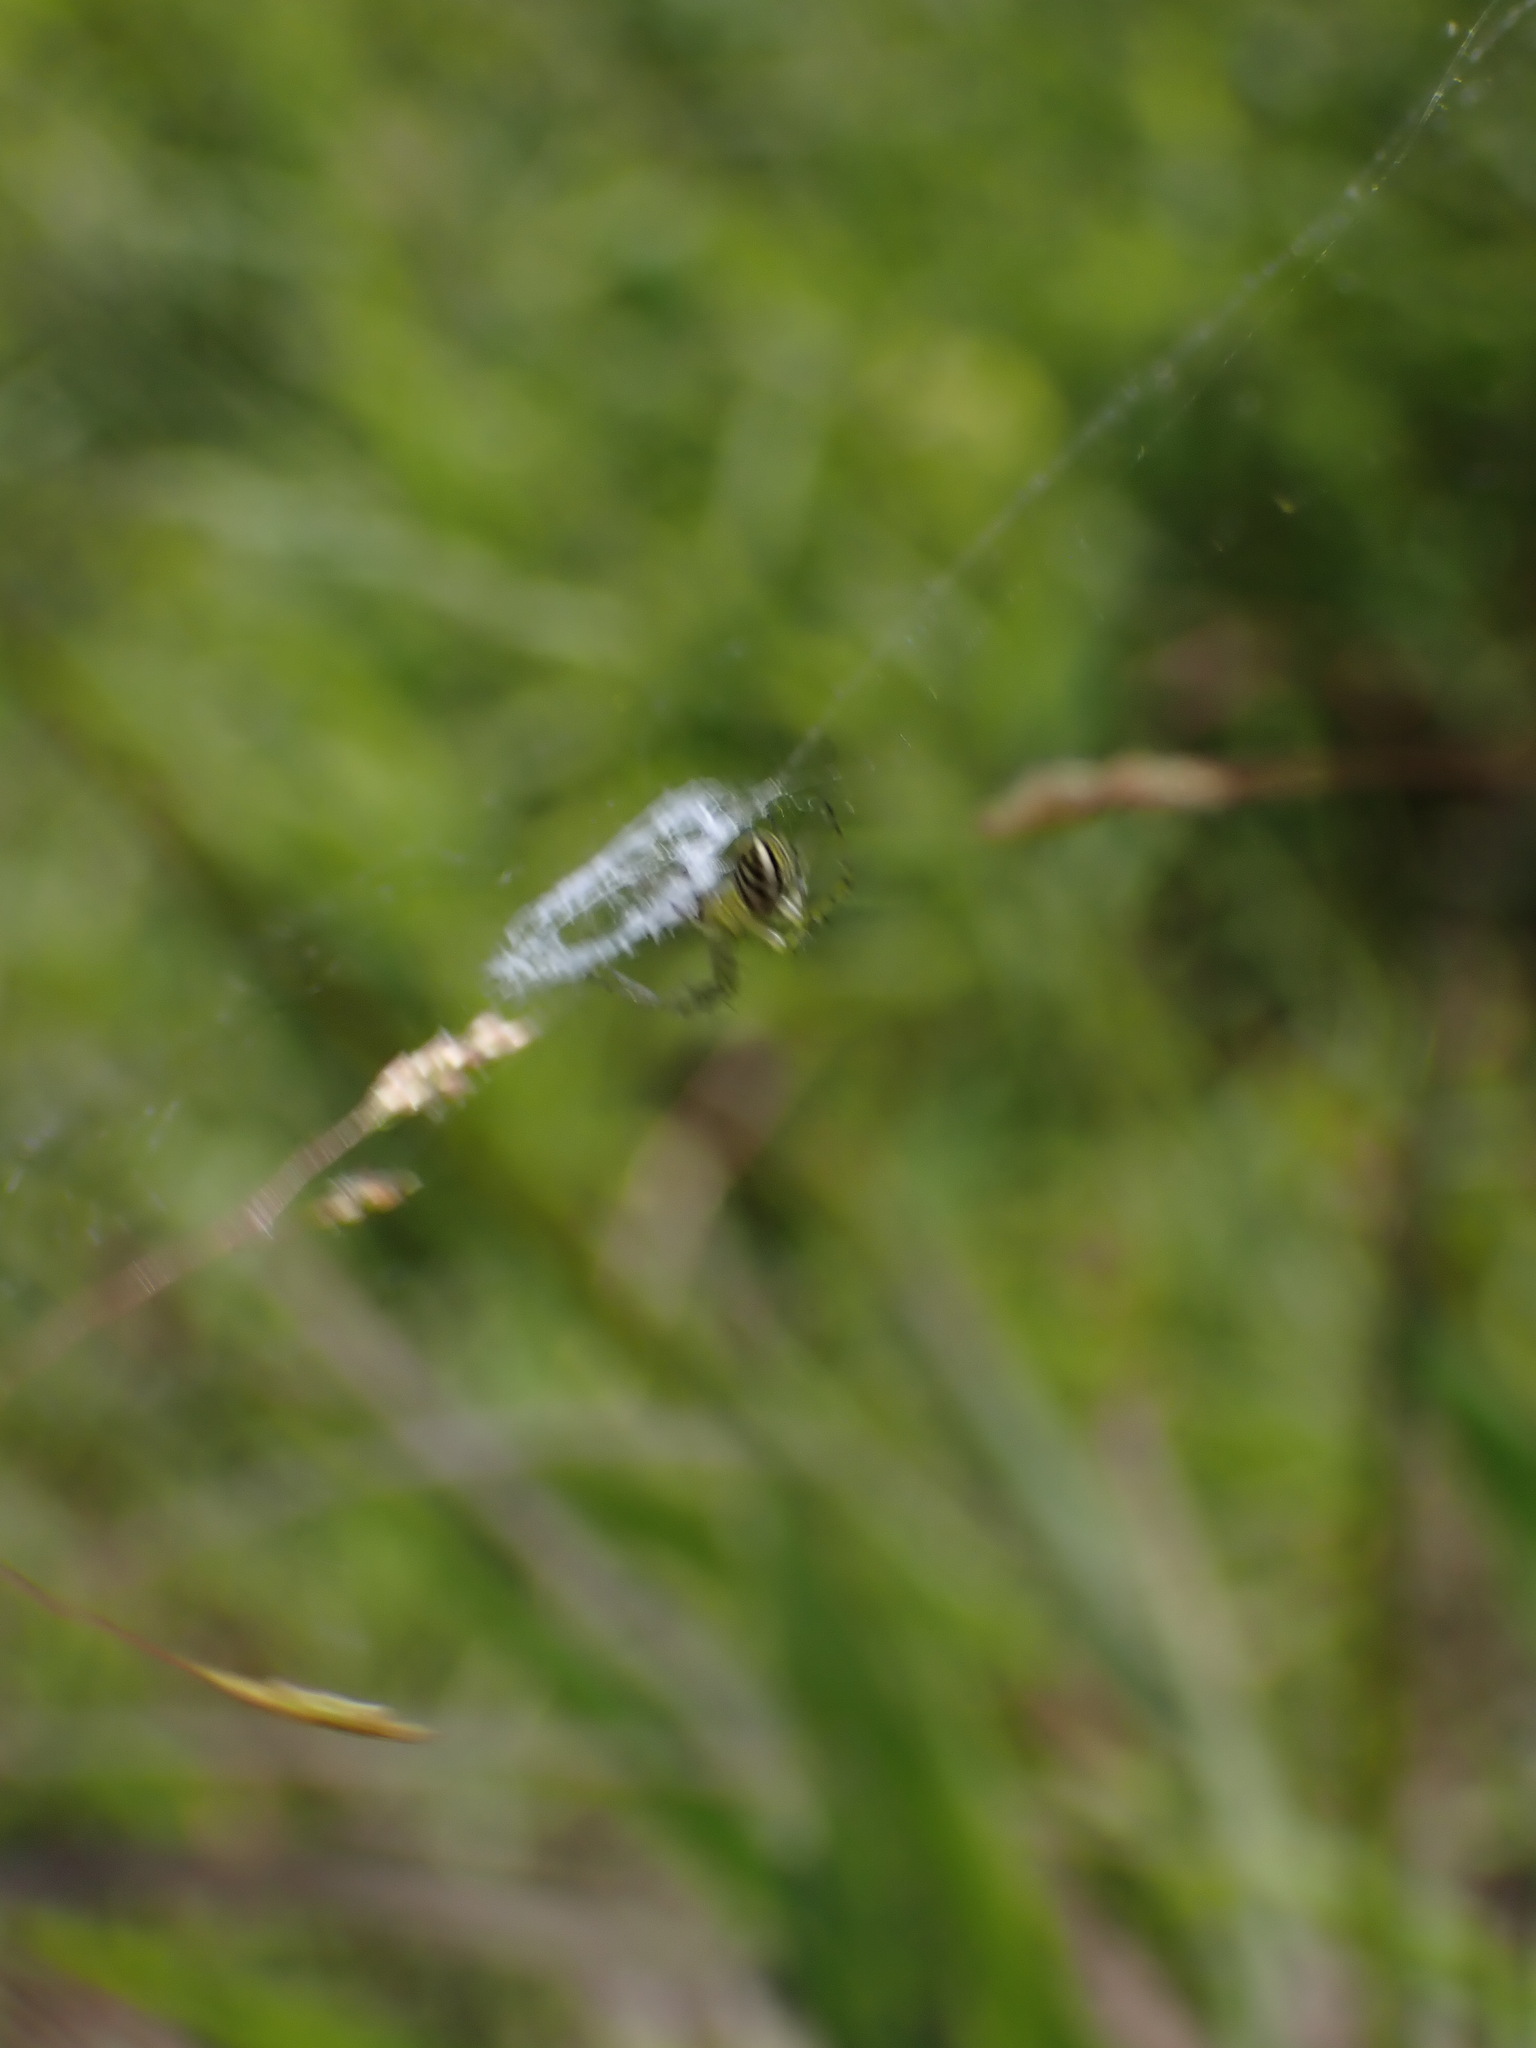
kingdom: Animalia
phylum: Arthropoda
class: Arachnida
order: Araneae
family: Araneidae
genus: Mangora
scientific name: Mangora gibberosa
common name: Lined orbweaver
